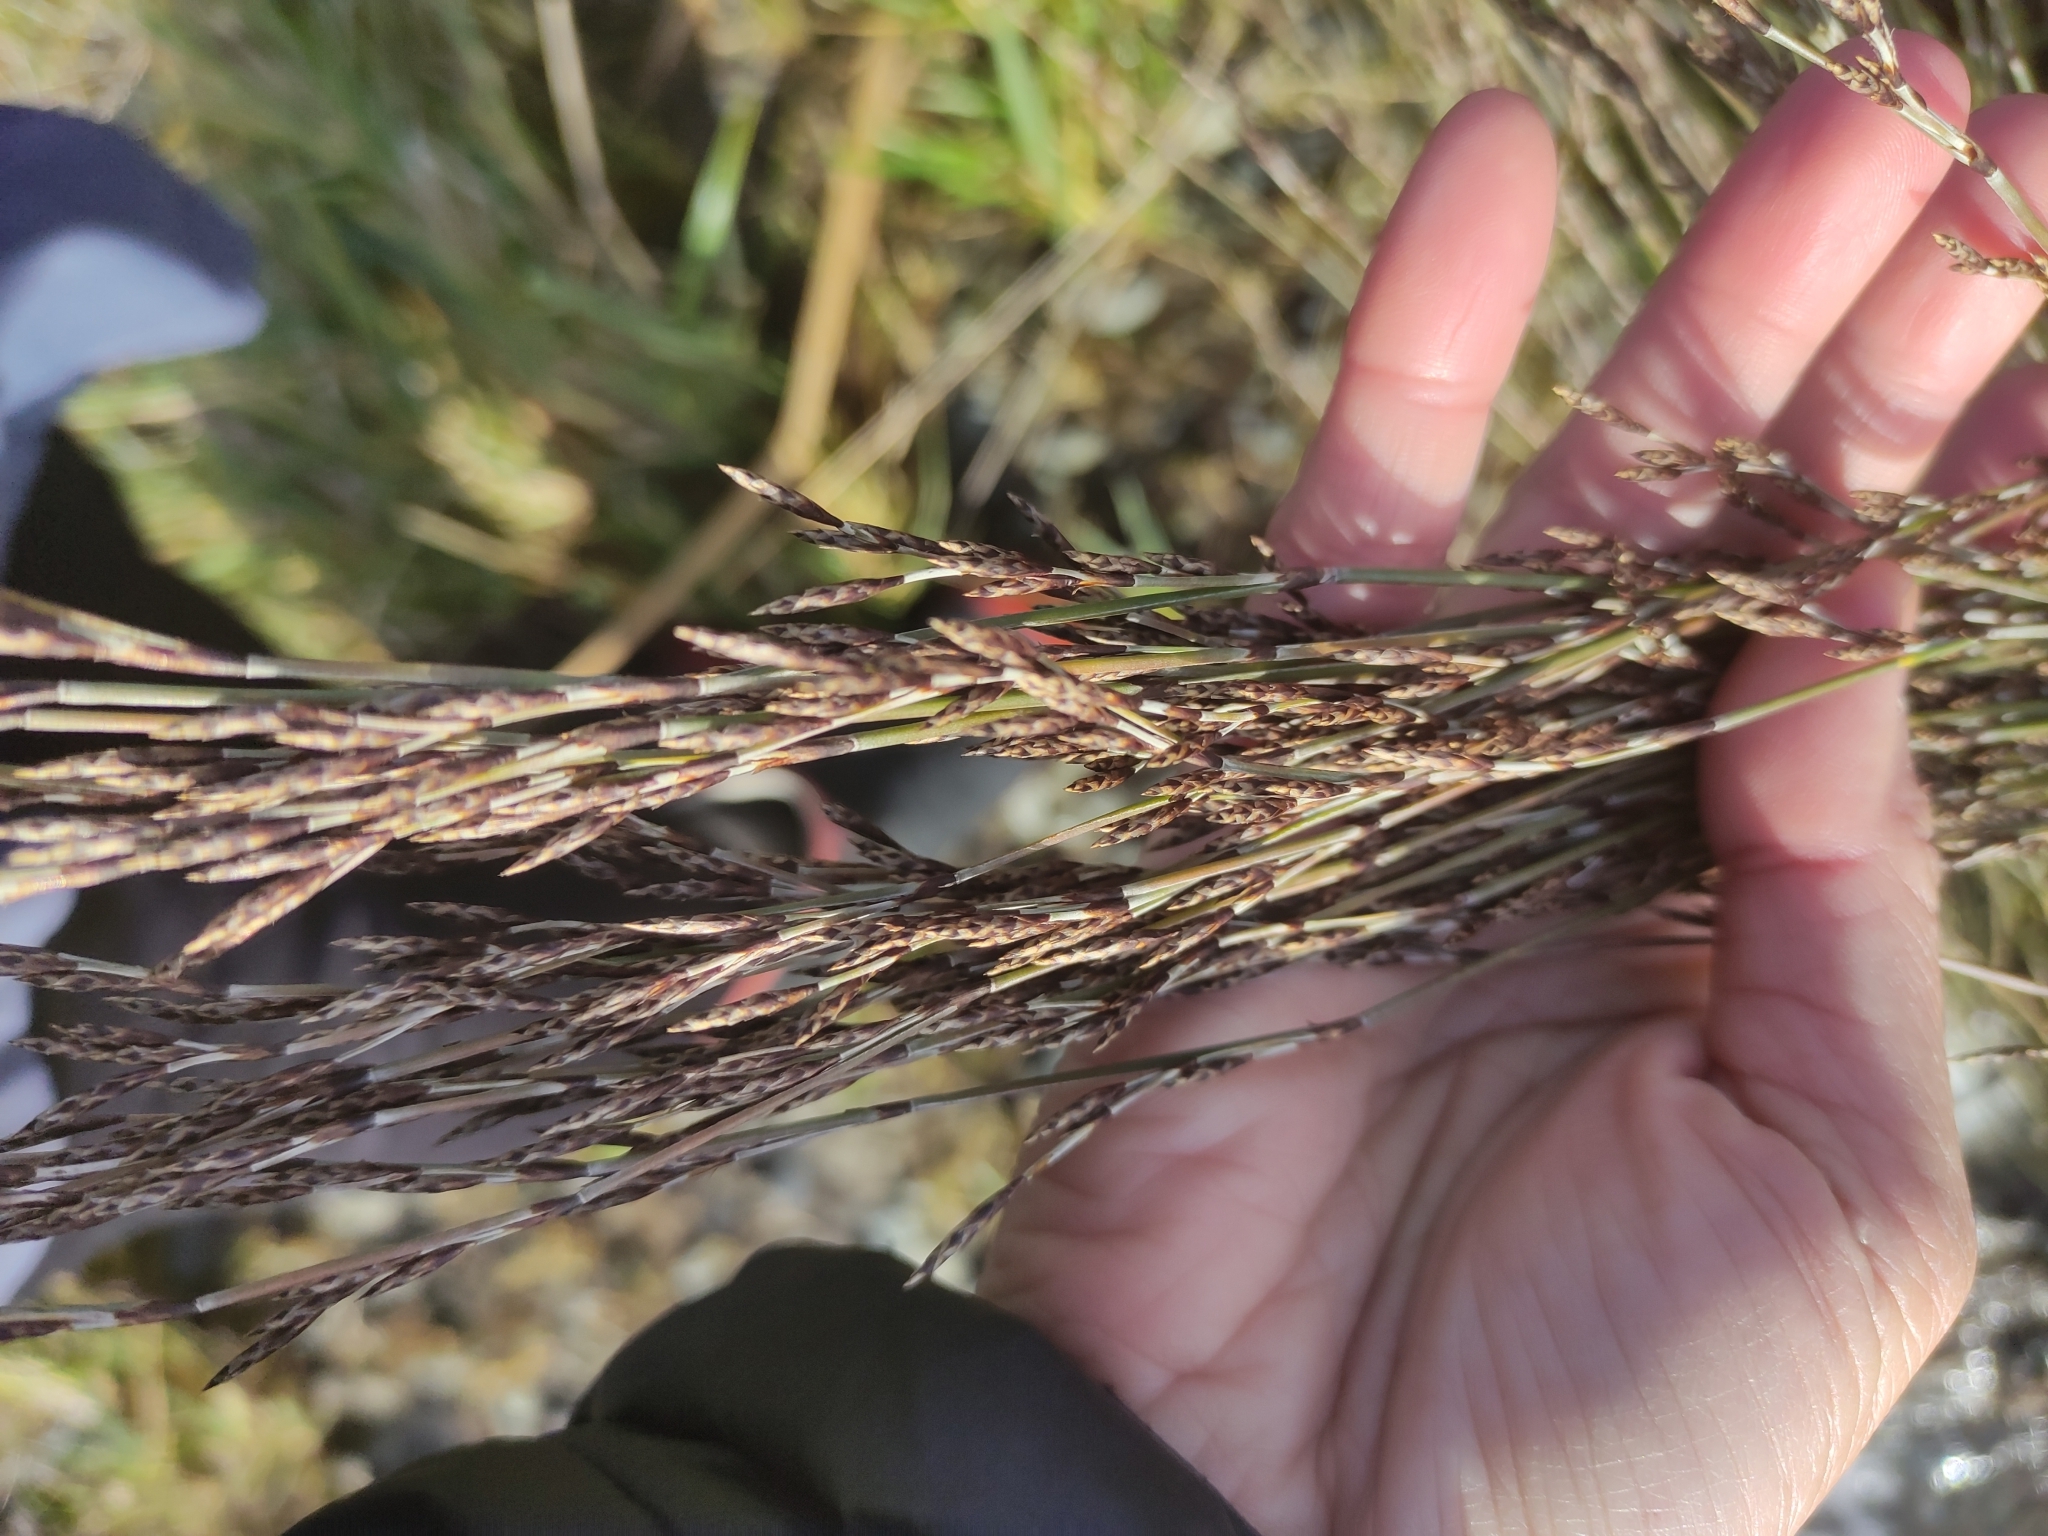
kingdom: Plantae
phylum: Tracheophyta
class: Liliopsida
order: Poales
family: Restionaceae
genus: Apodasmia
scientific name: Apodasmia similis
